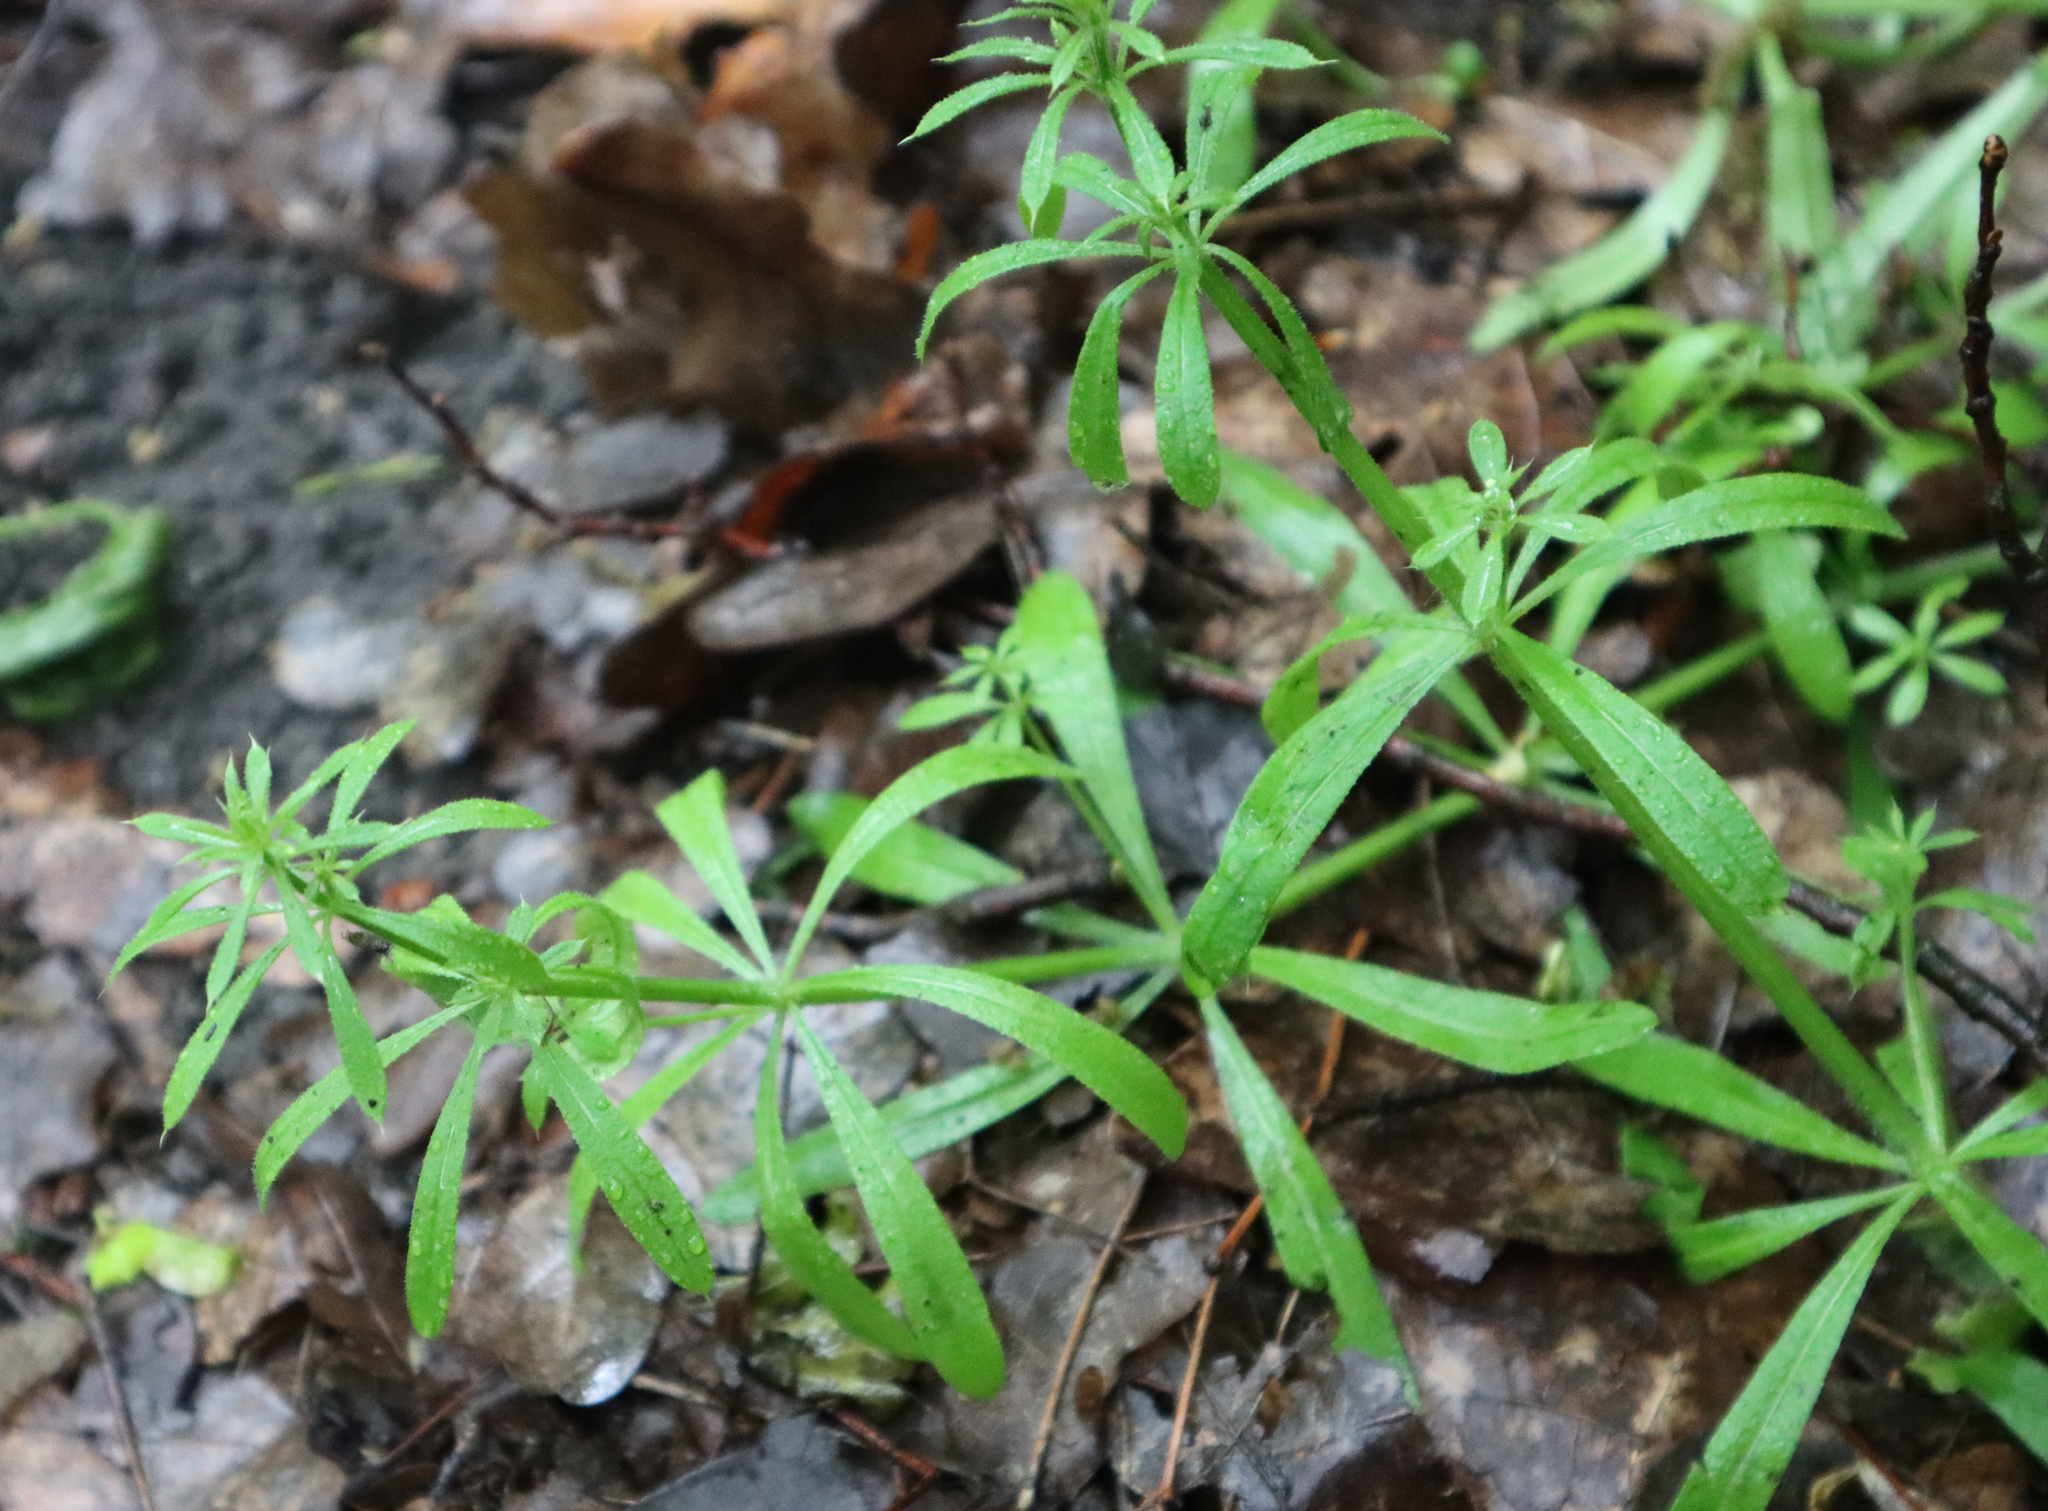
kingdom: Plantae
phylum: Tracheophyta
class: Magnoliopsida
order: Gentianales
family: Rubiaceae
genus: Galium
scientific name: Galium aparine
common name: Cleavers
